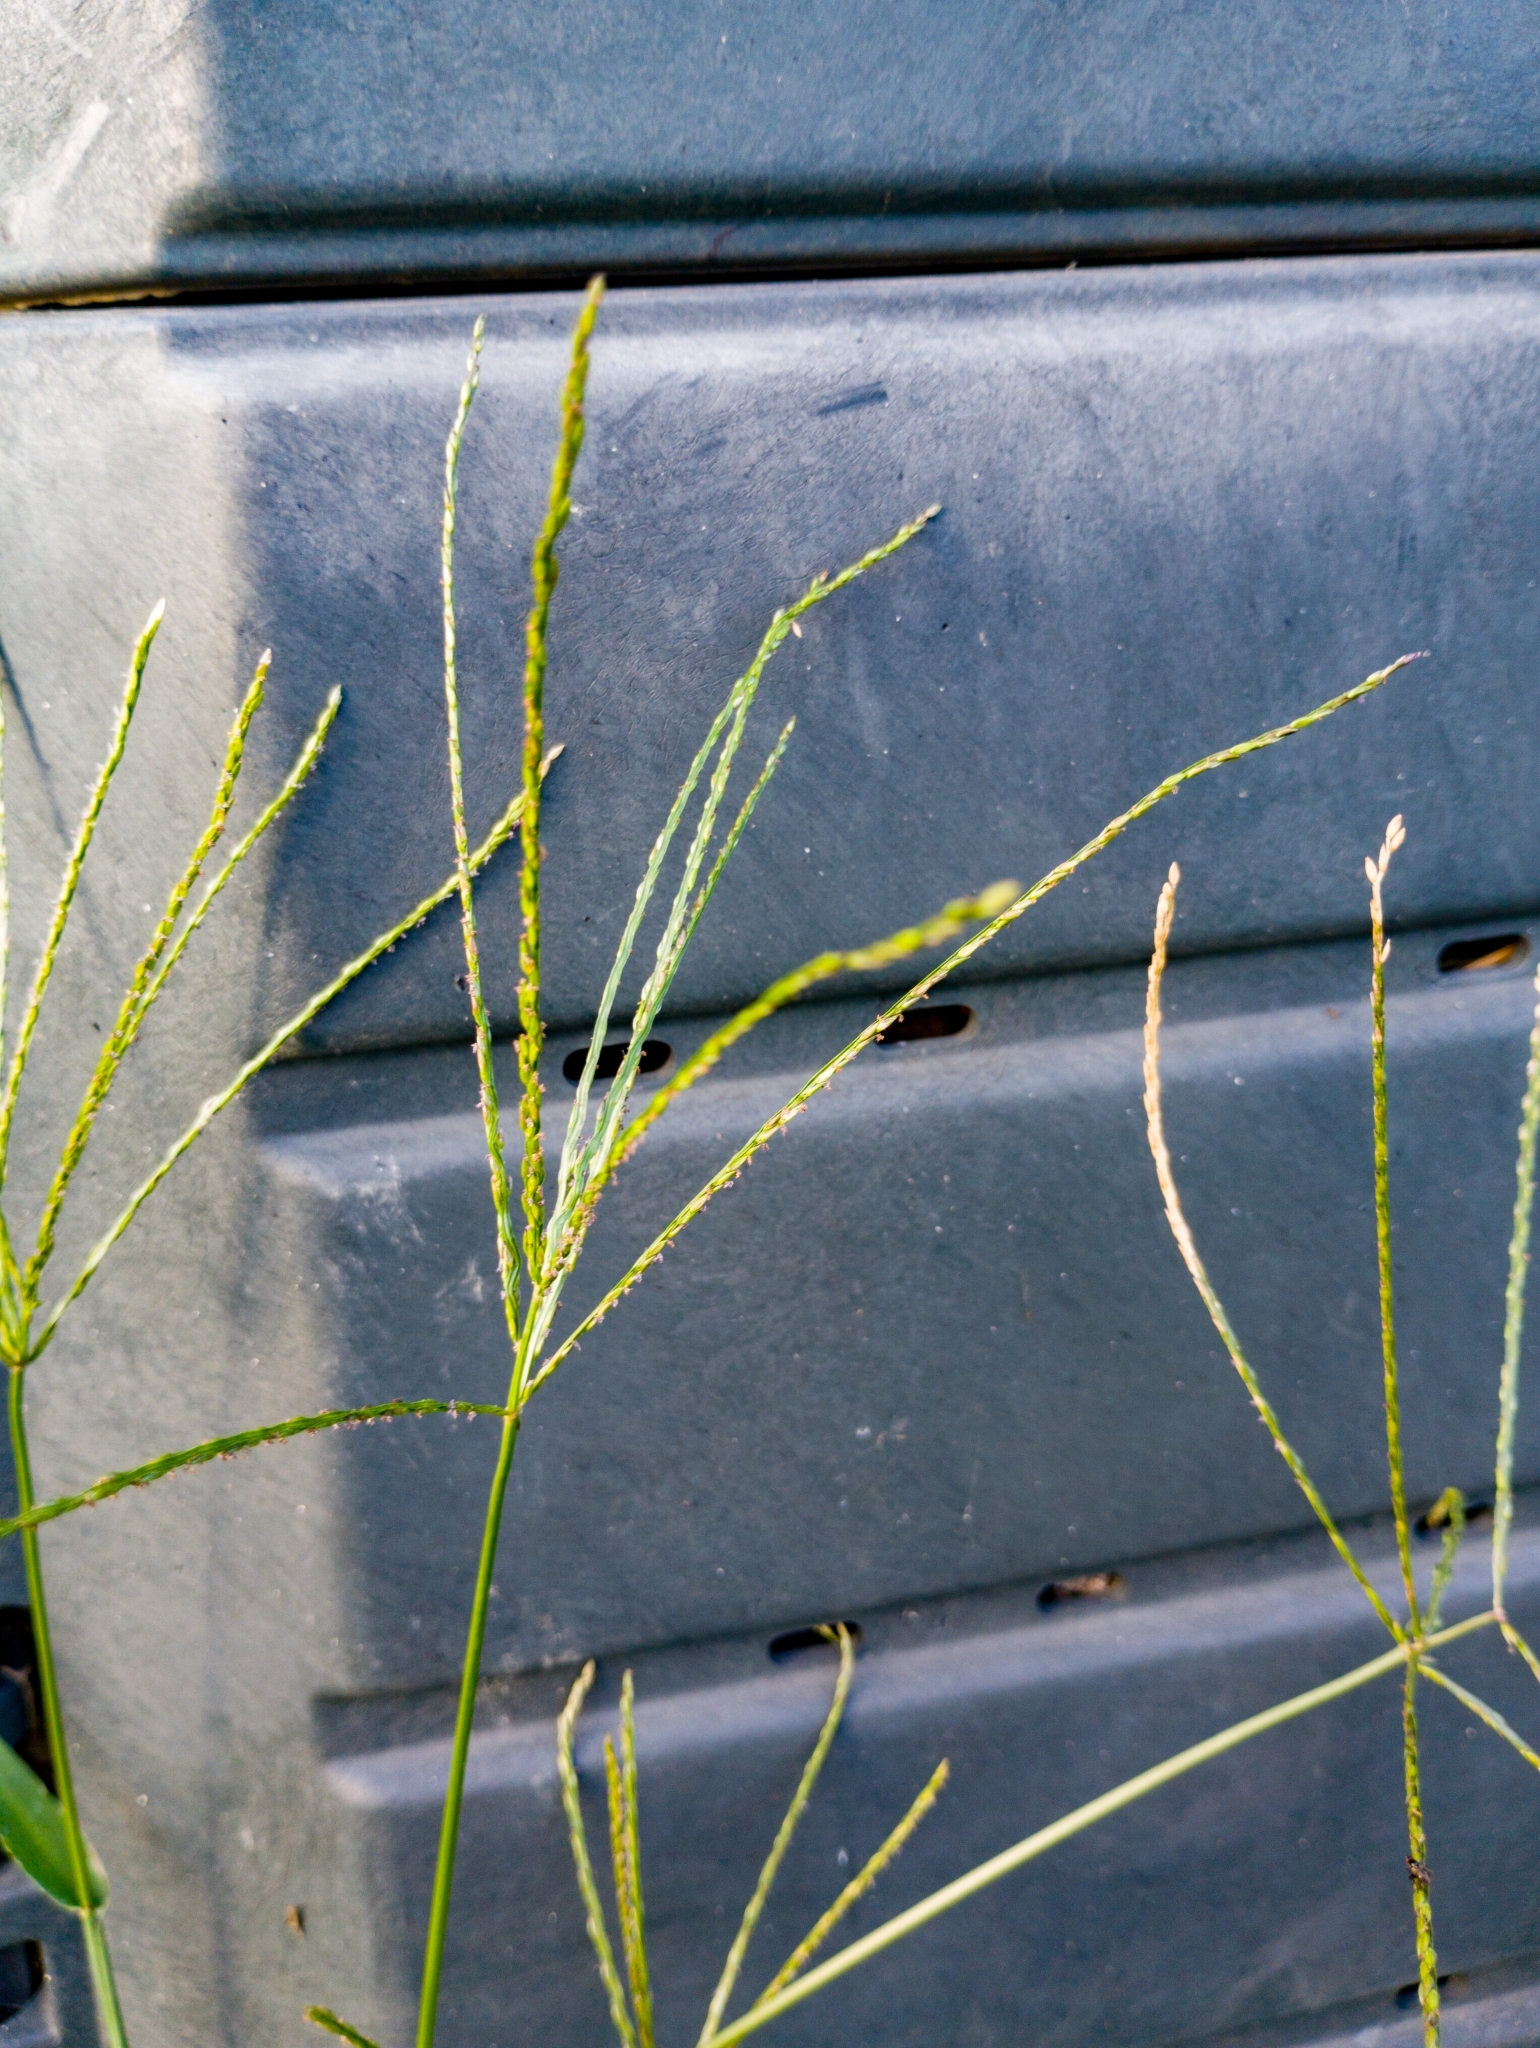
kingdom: Plantae
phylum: Tracheophyta
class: Liliopsida
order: Poales
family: Poaceae
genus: Digitaria
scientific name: Digitaria sanguinalis
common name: Hairy crabgrass
